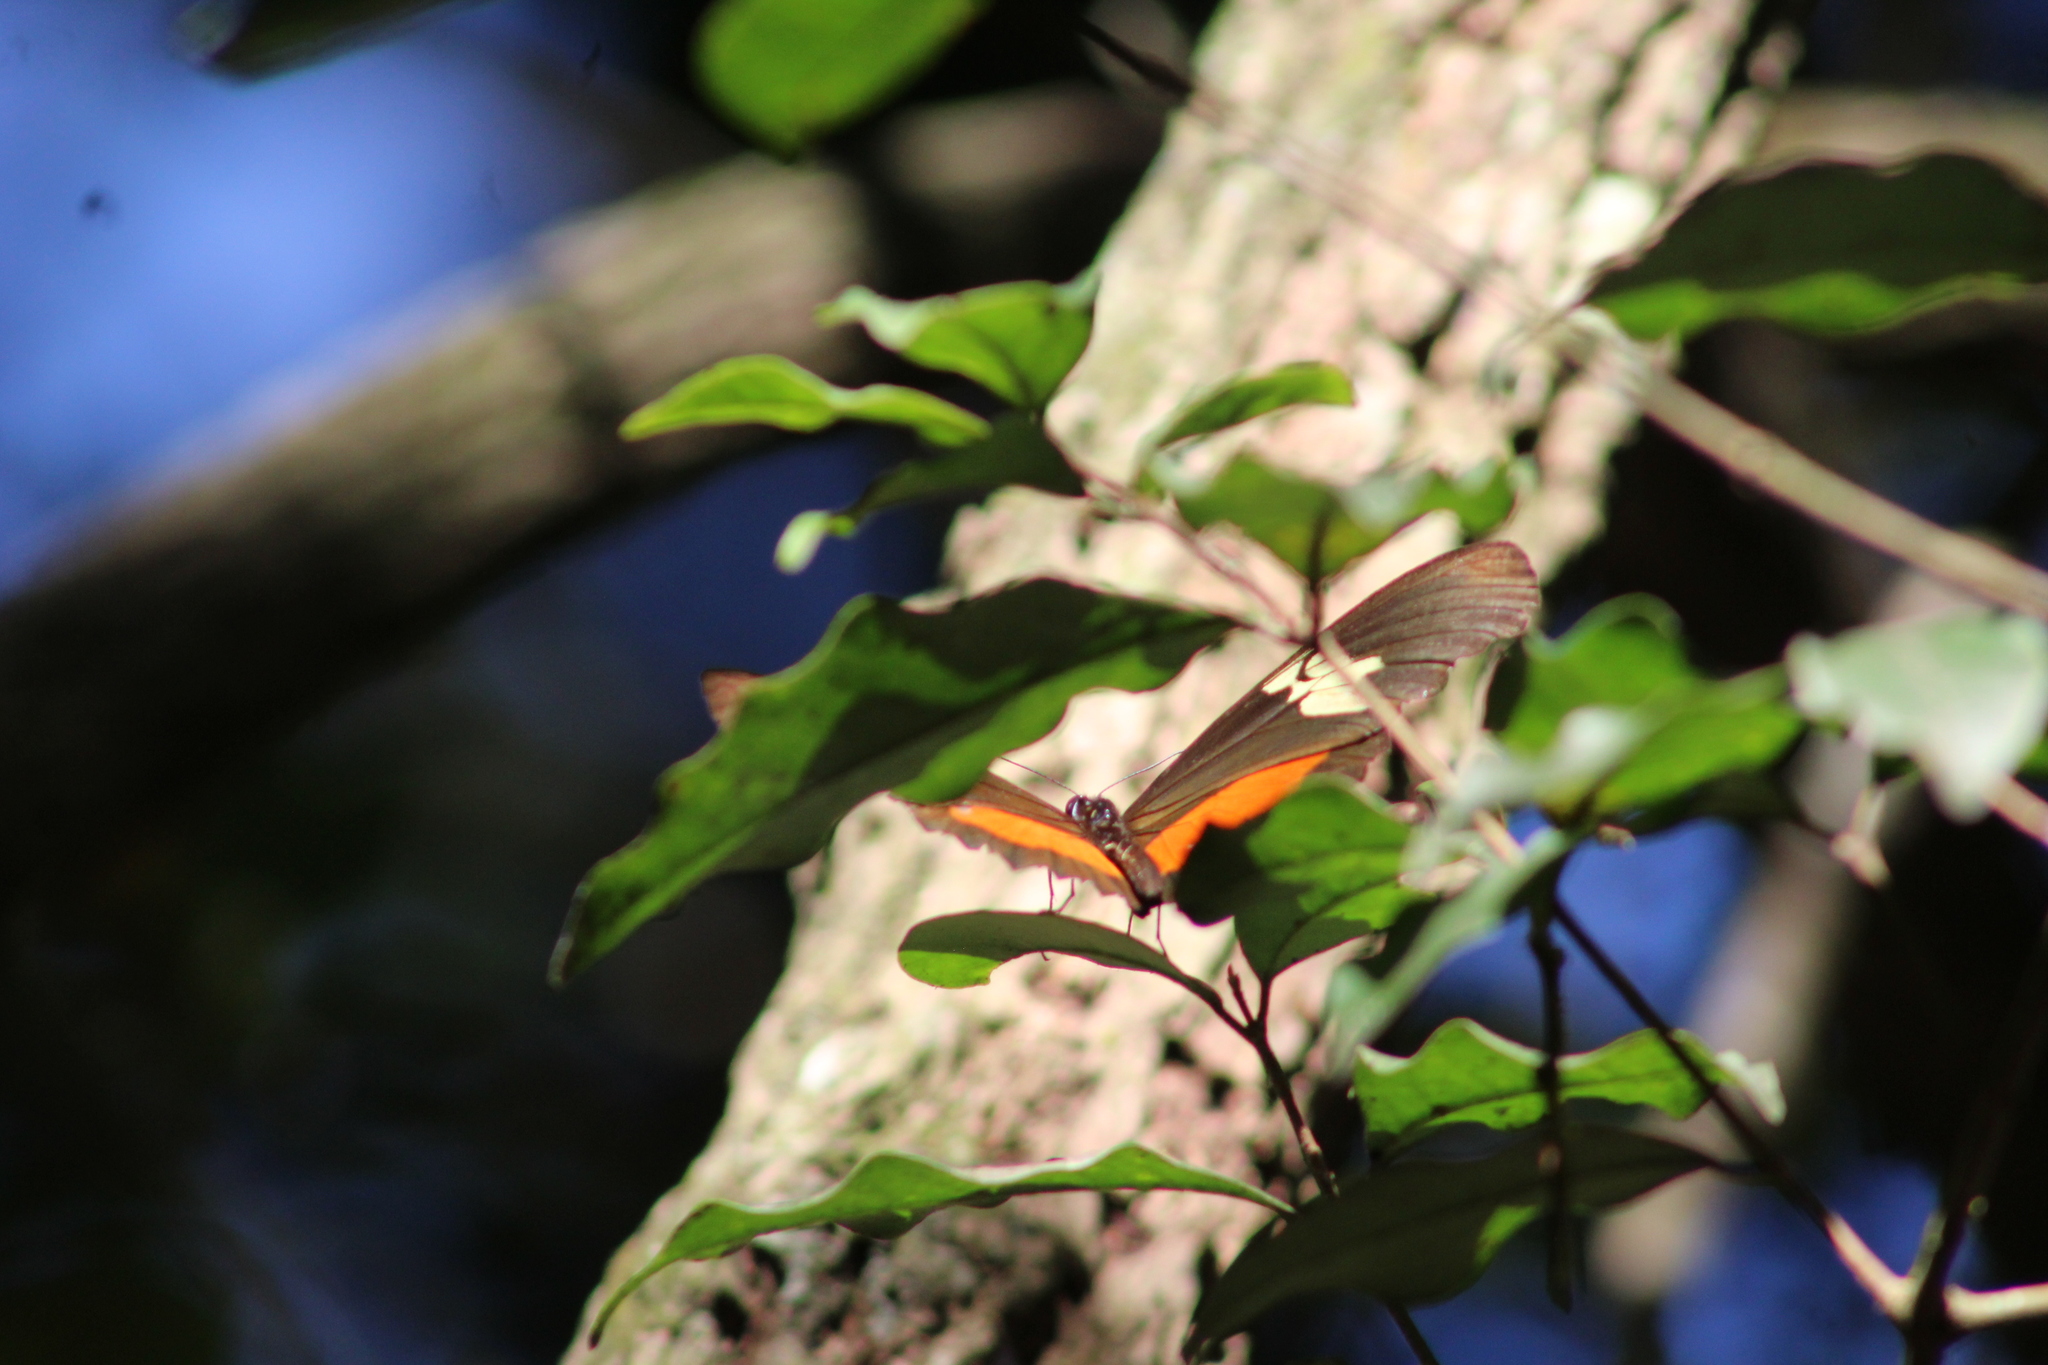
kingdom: Animalia
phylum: Arthropoda
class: Insecta
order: Lepidoptera
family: Nymphalidae
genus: Heliconius
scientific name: Heliconius hortense
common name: Mexican longwing
